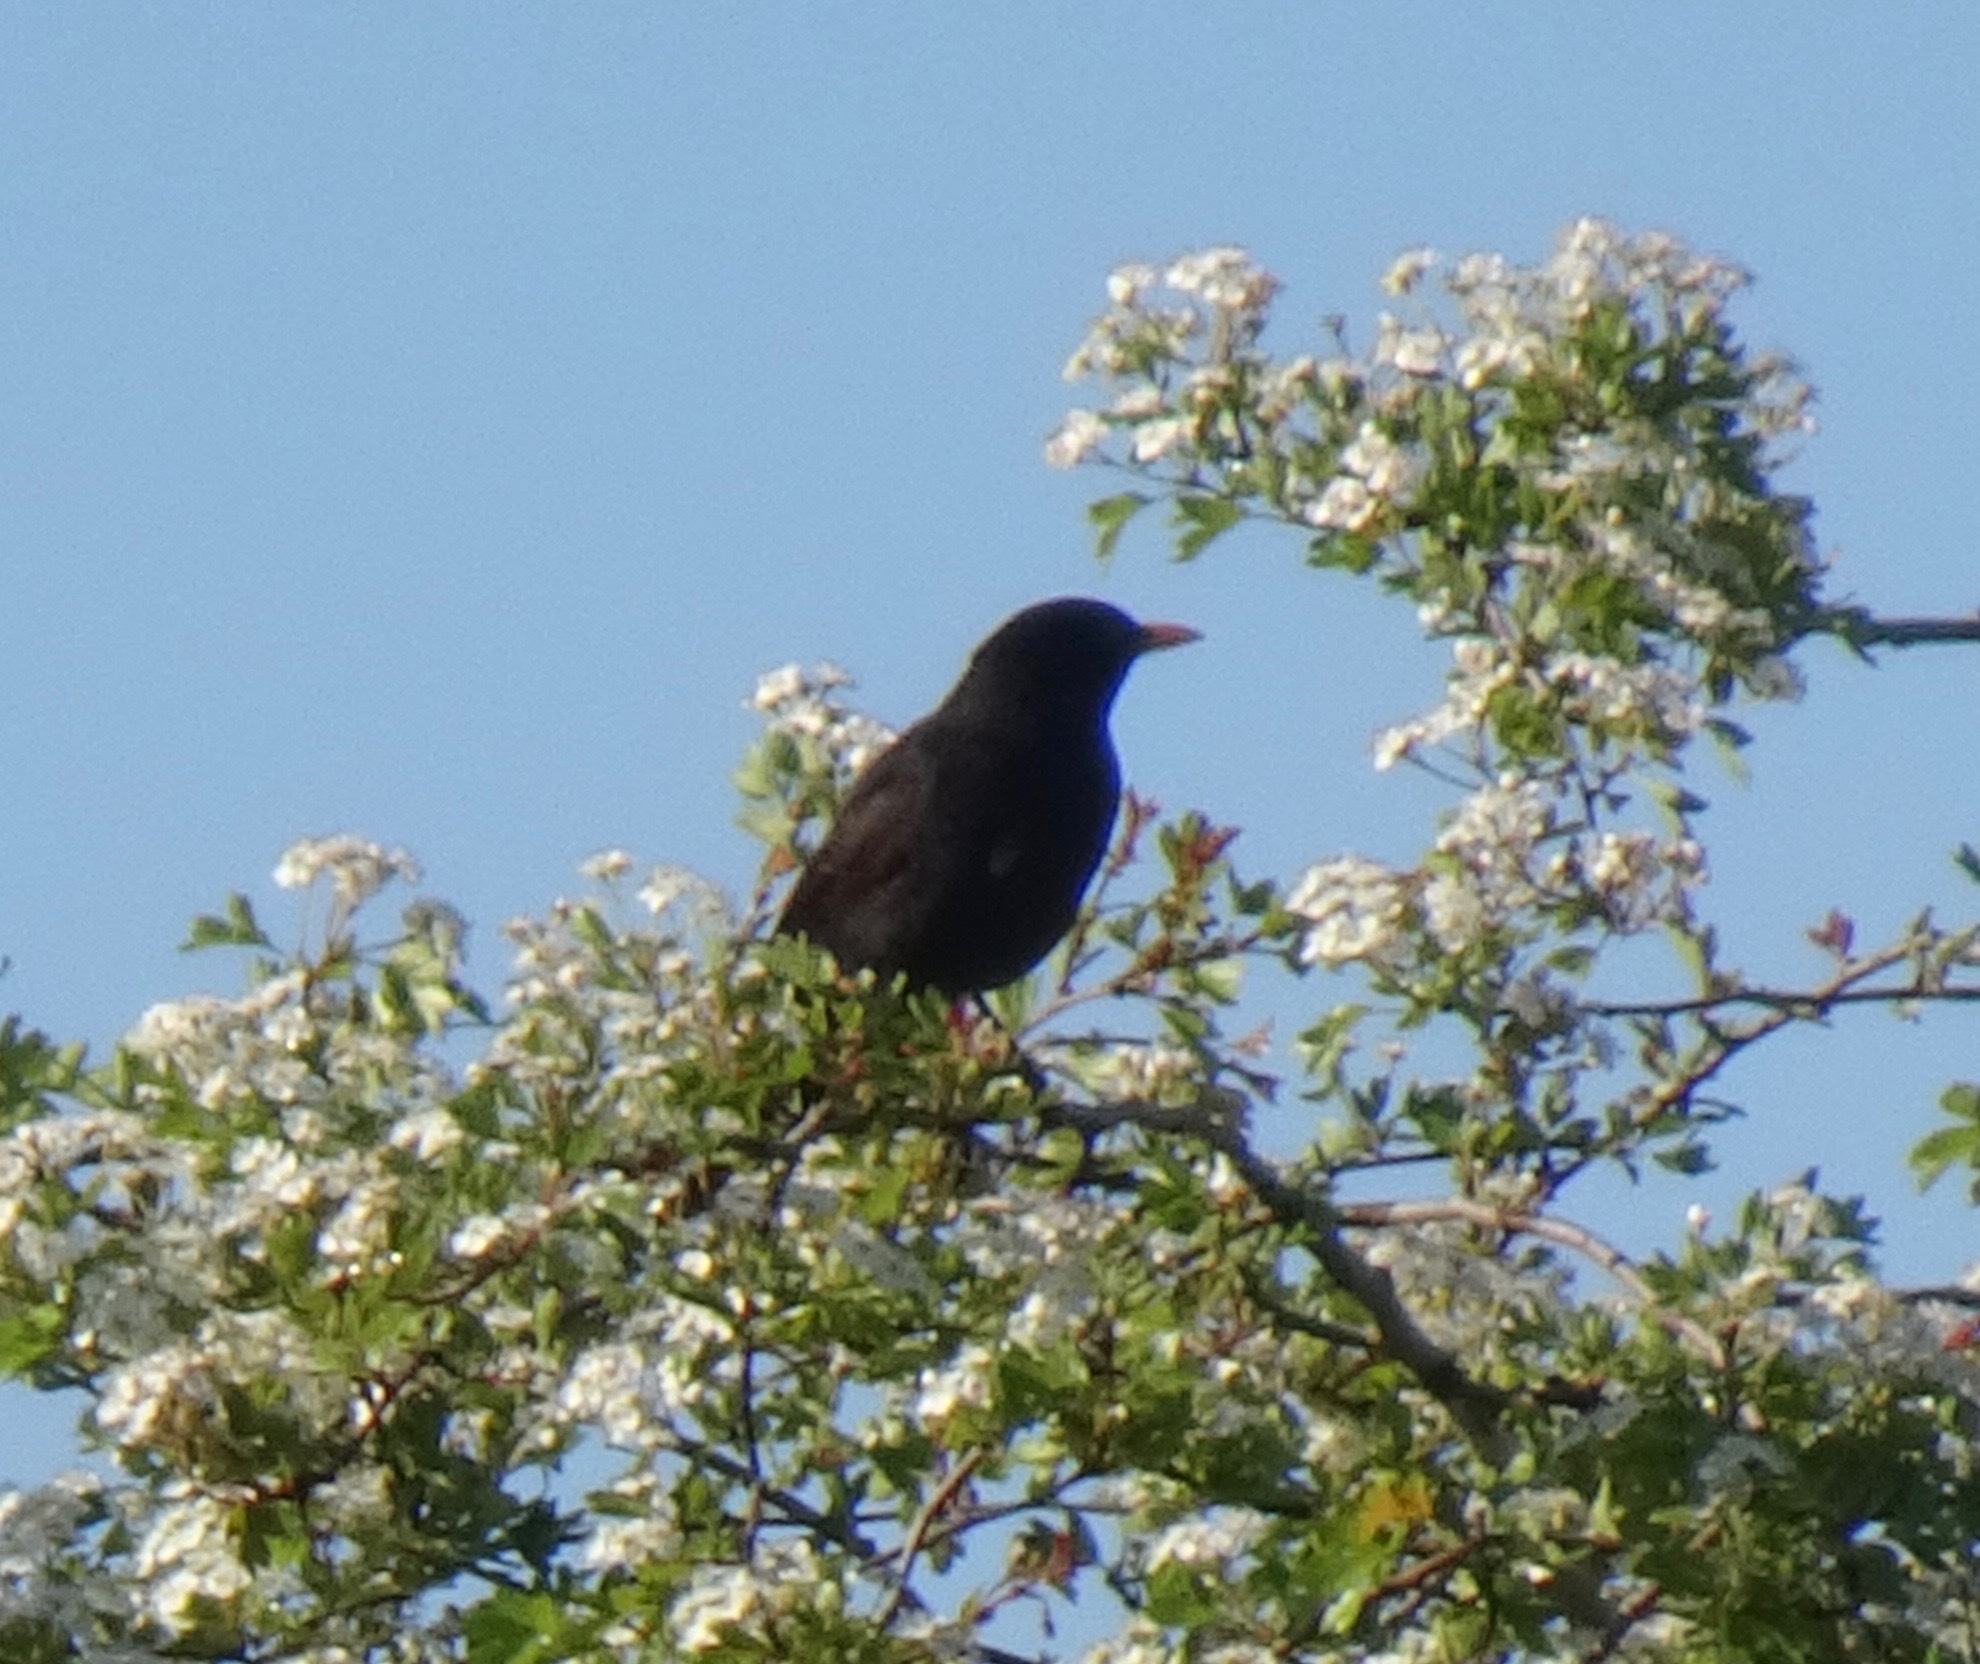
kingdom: Animalia
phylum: Chordata
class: Aves
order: Passeriformes
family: Turdidae
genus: Turdus
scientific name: Turdus merula
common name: Common blackbird
